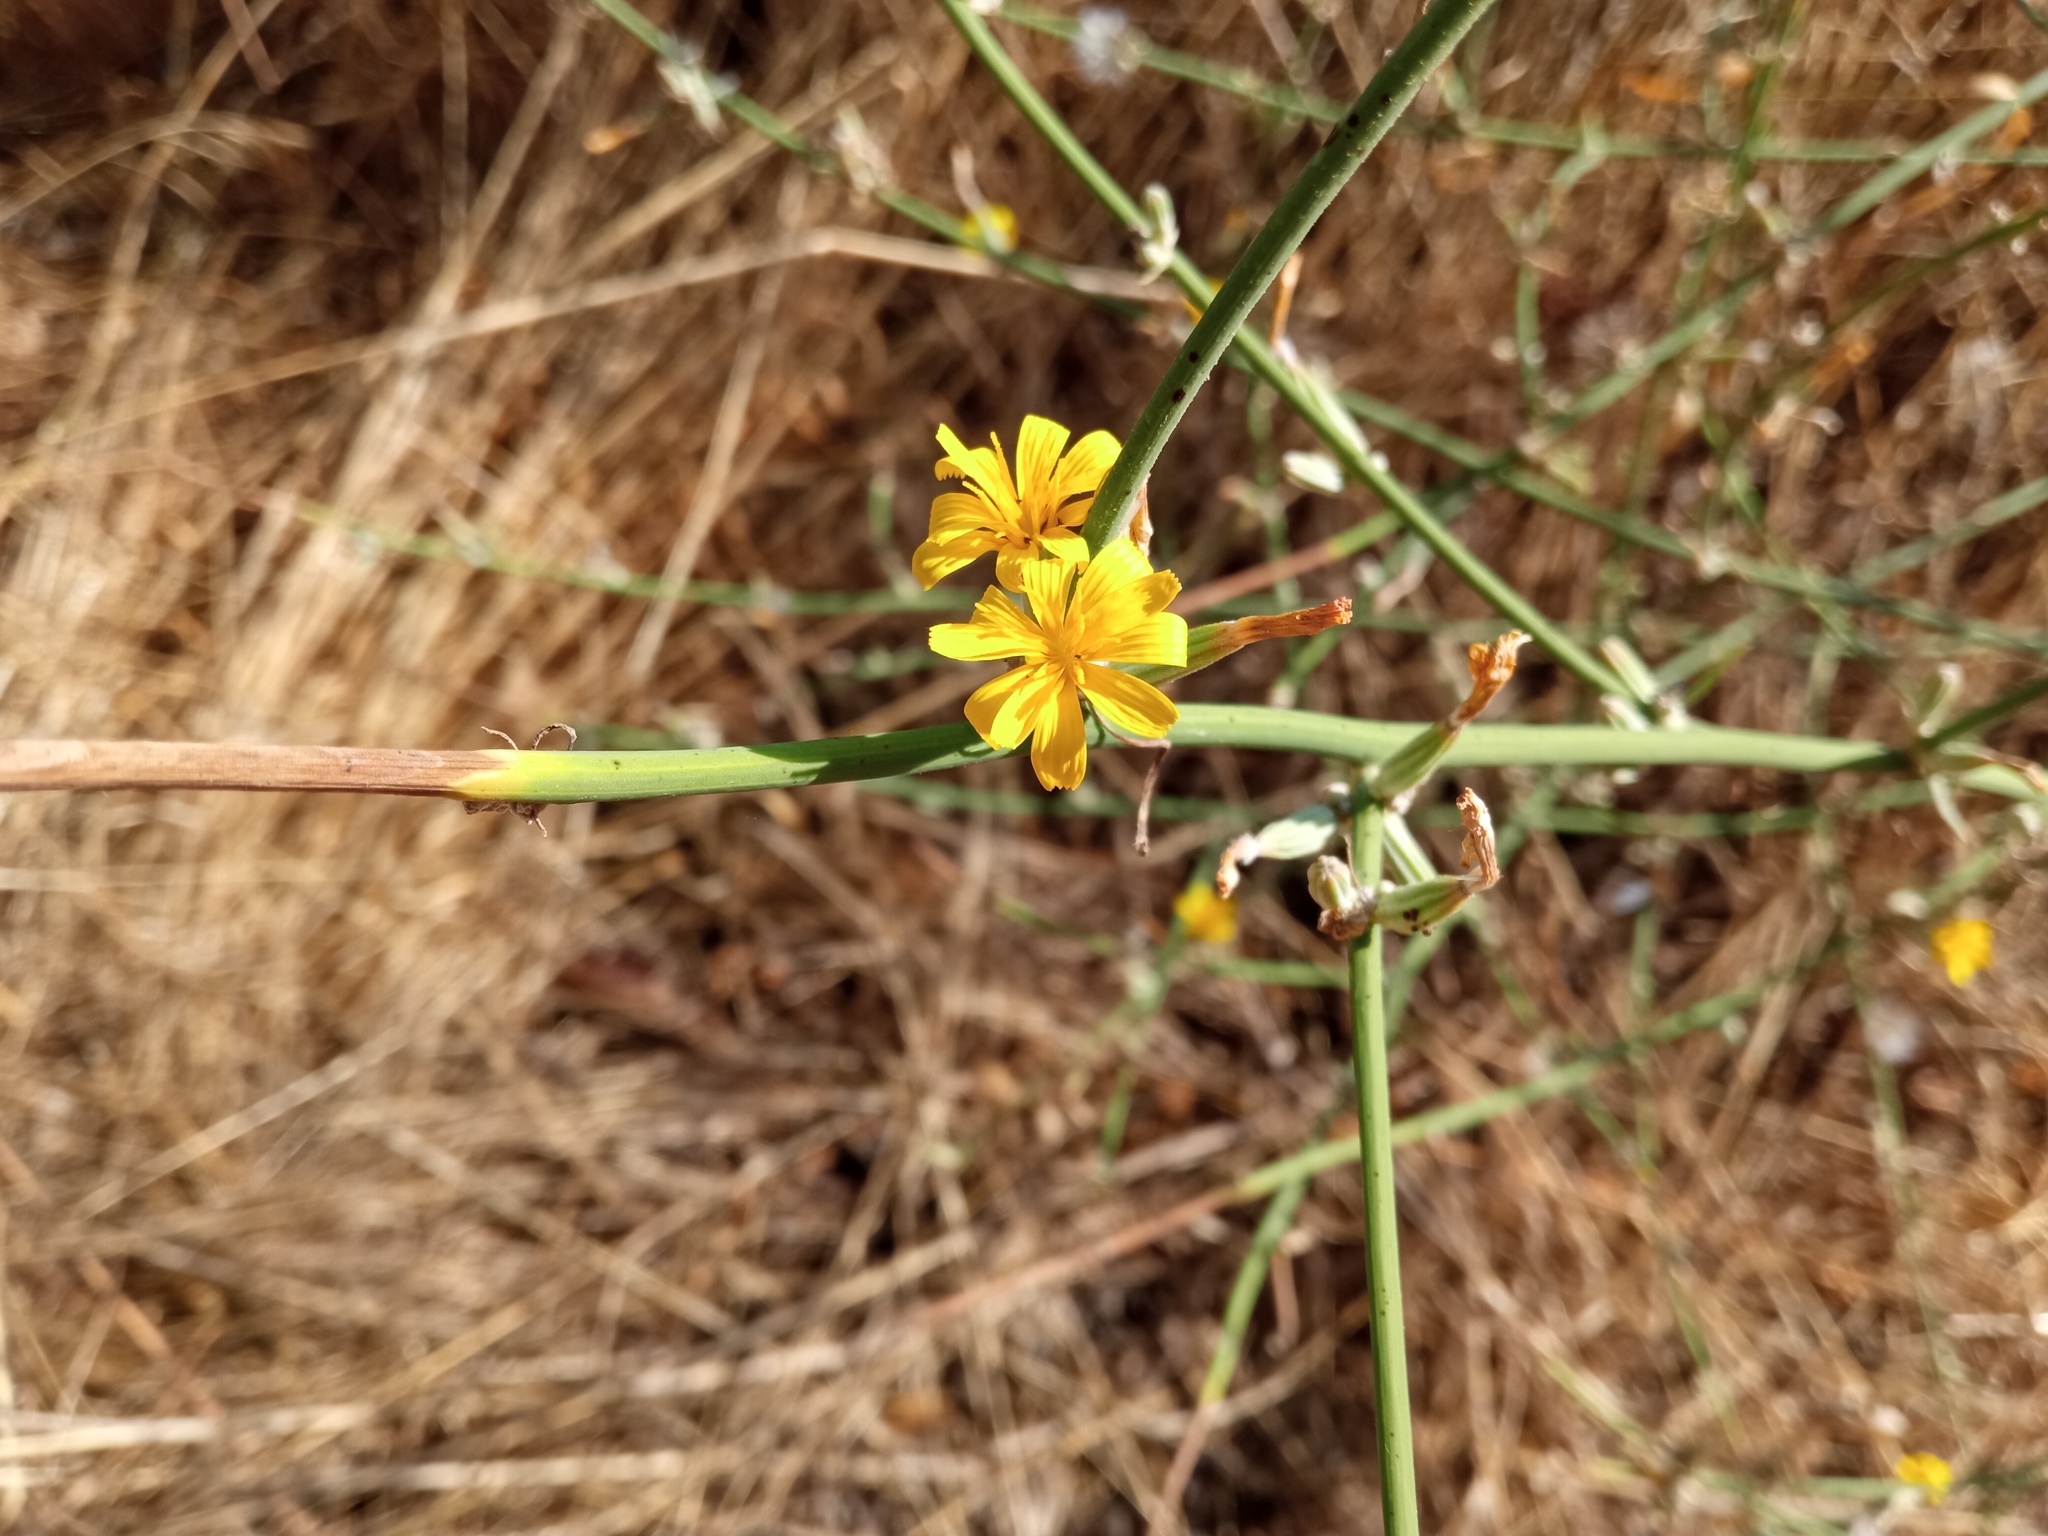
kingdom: Plantae
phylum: Tracheophyta
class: Magnoliopsida
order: Asterales
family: Asteraceae
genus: Chondrilla
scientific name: Chondrilla juncea
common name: Skeleton weed
